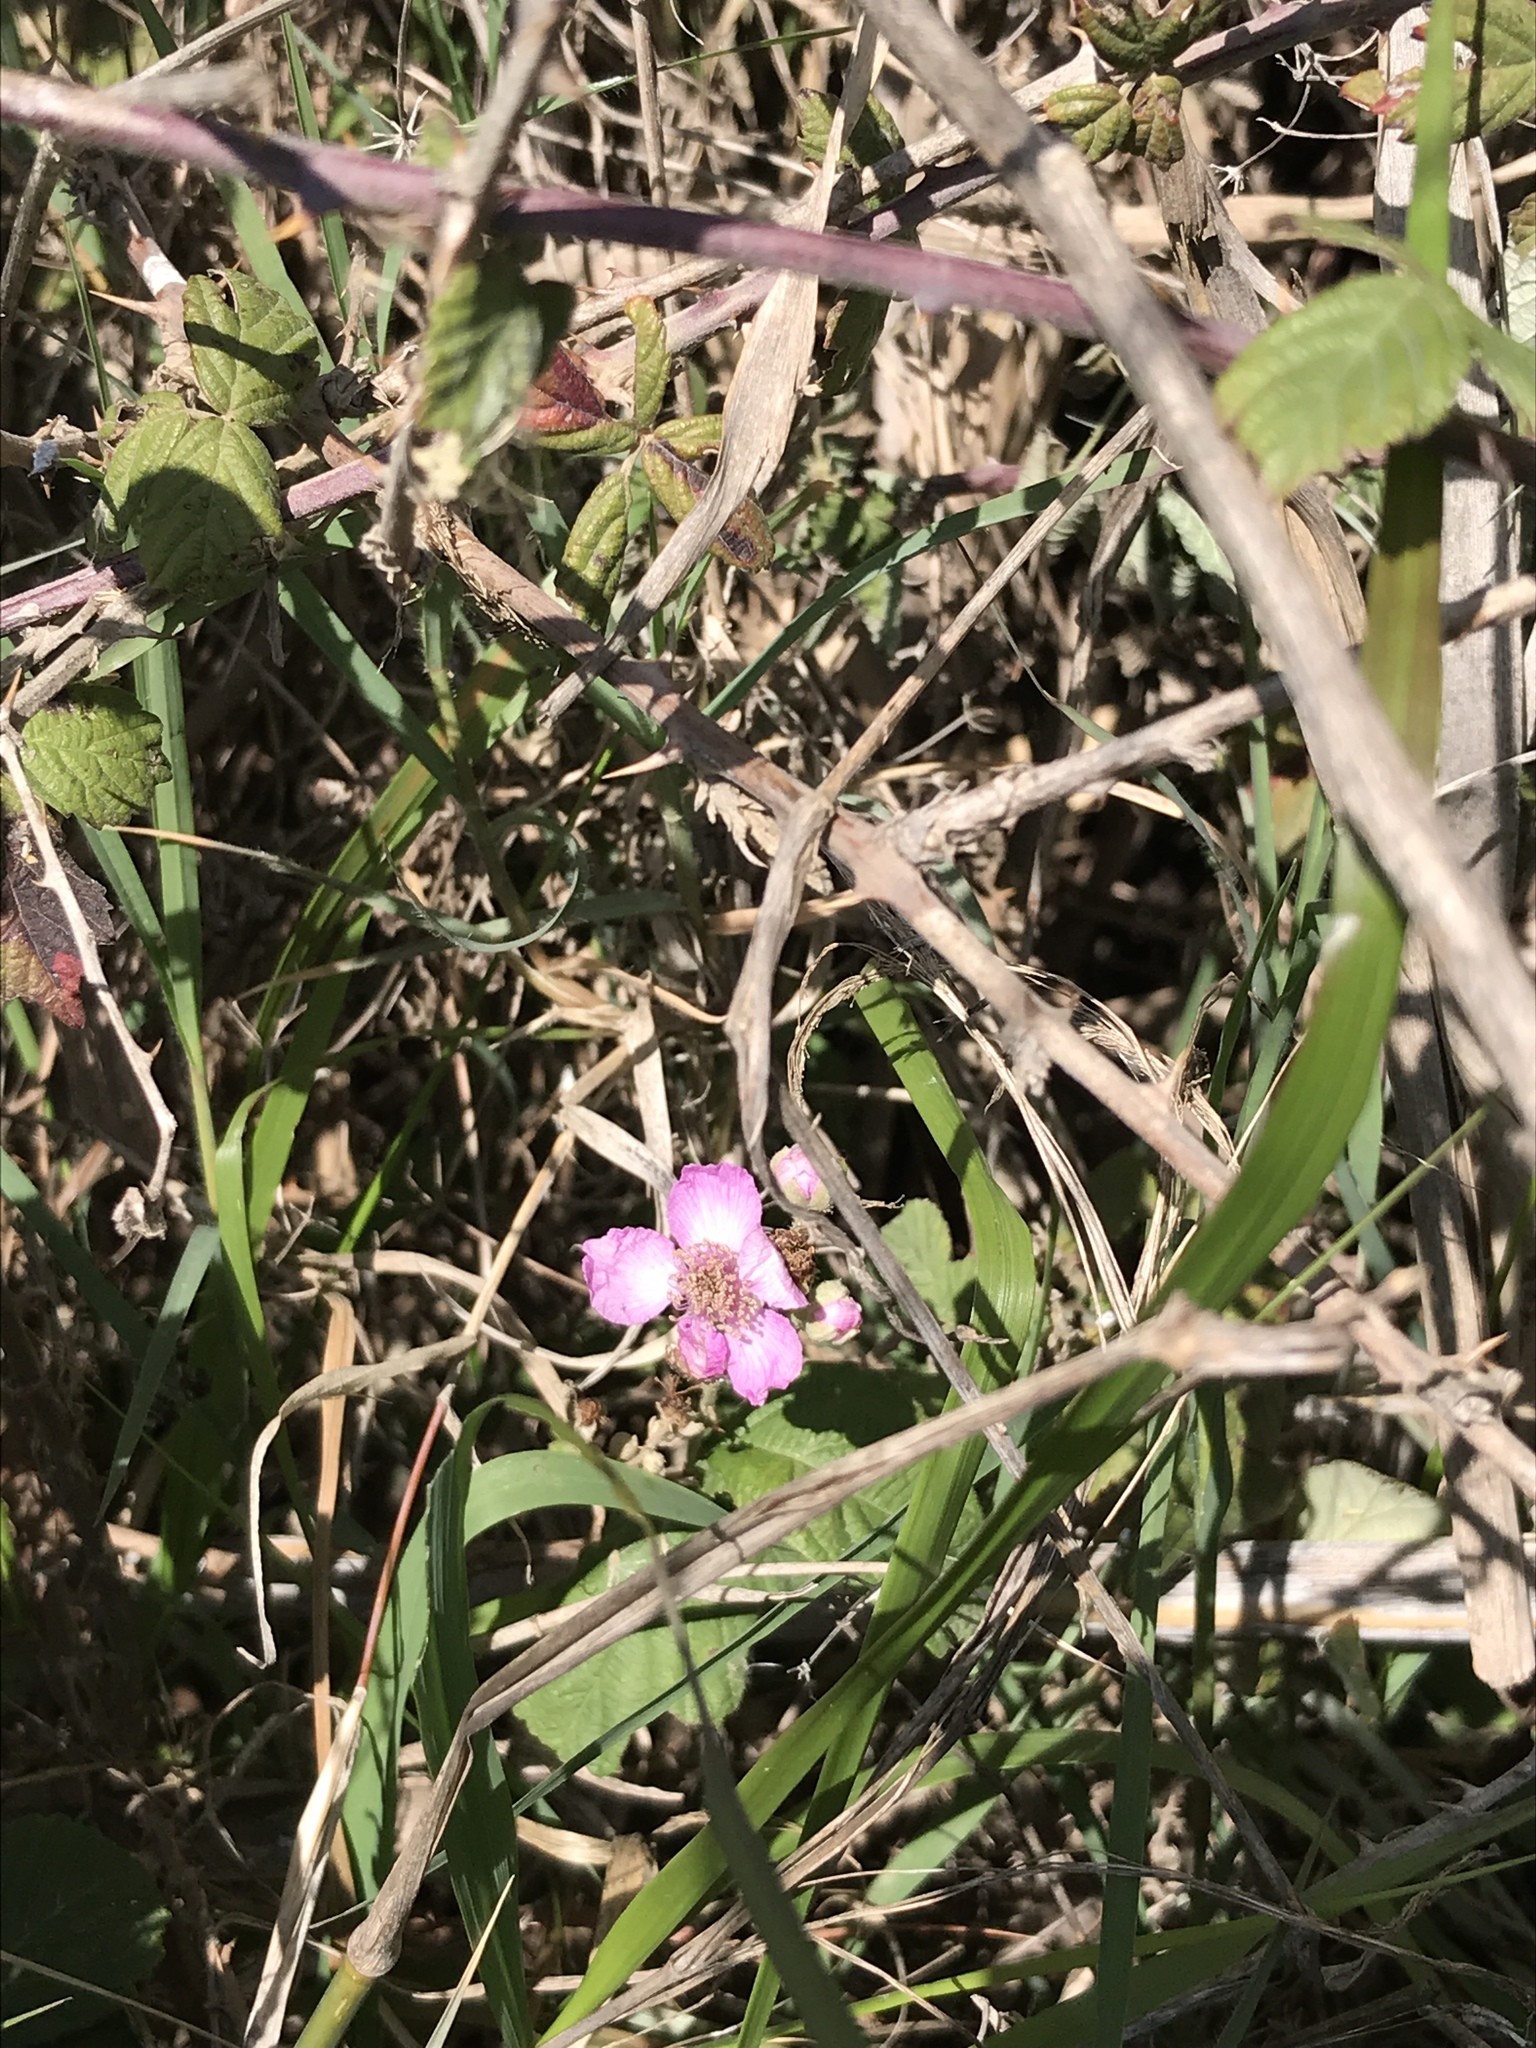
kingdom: Plantae
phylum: Tracheophyta
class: Magnoliopsida
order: Rosales
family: Rosaceae
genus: Rubus
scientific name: Rubus sanctus
